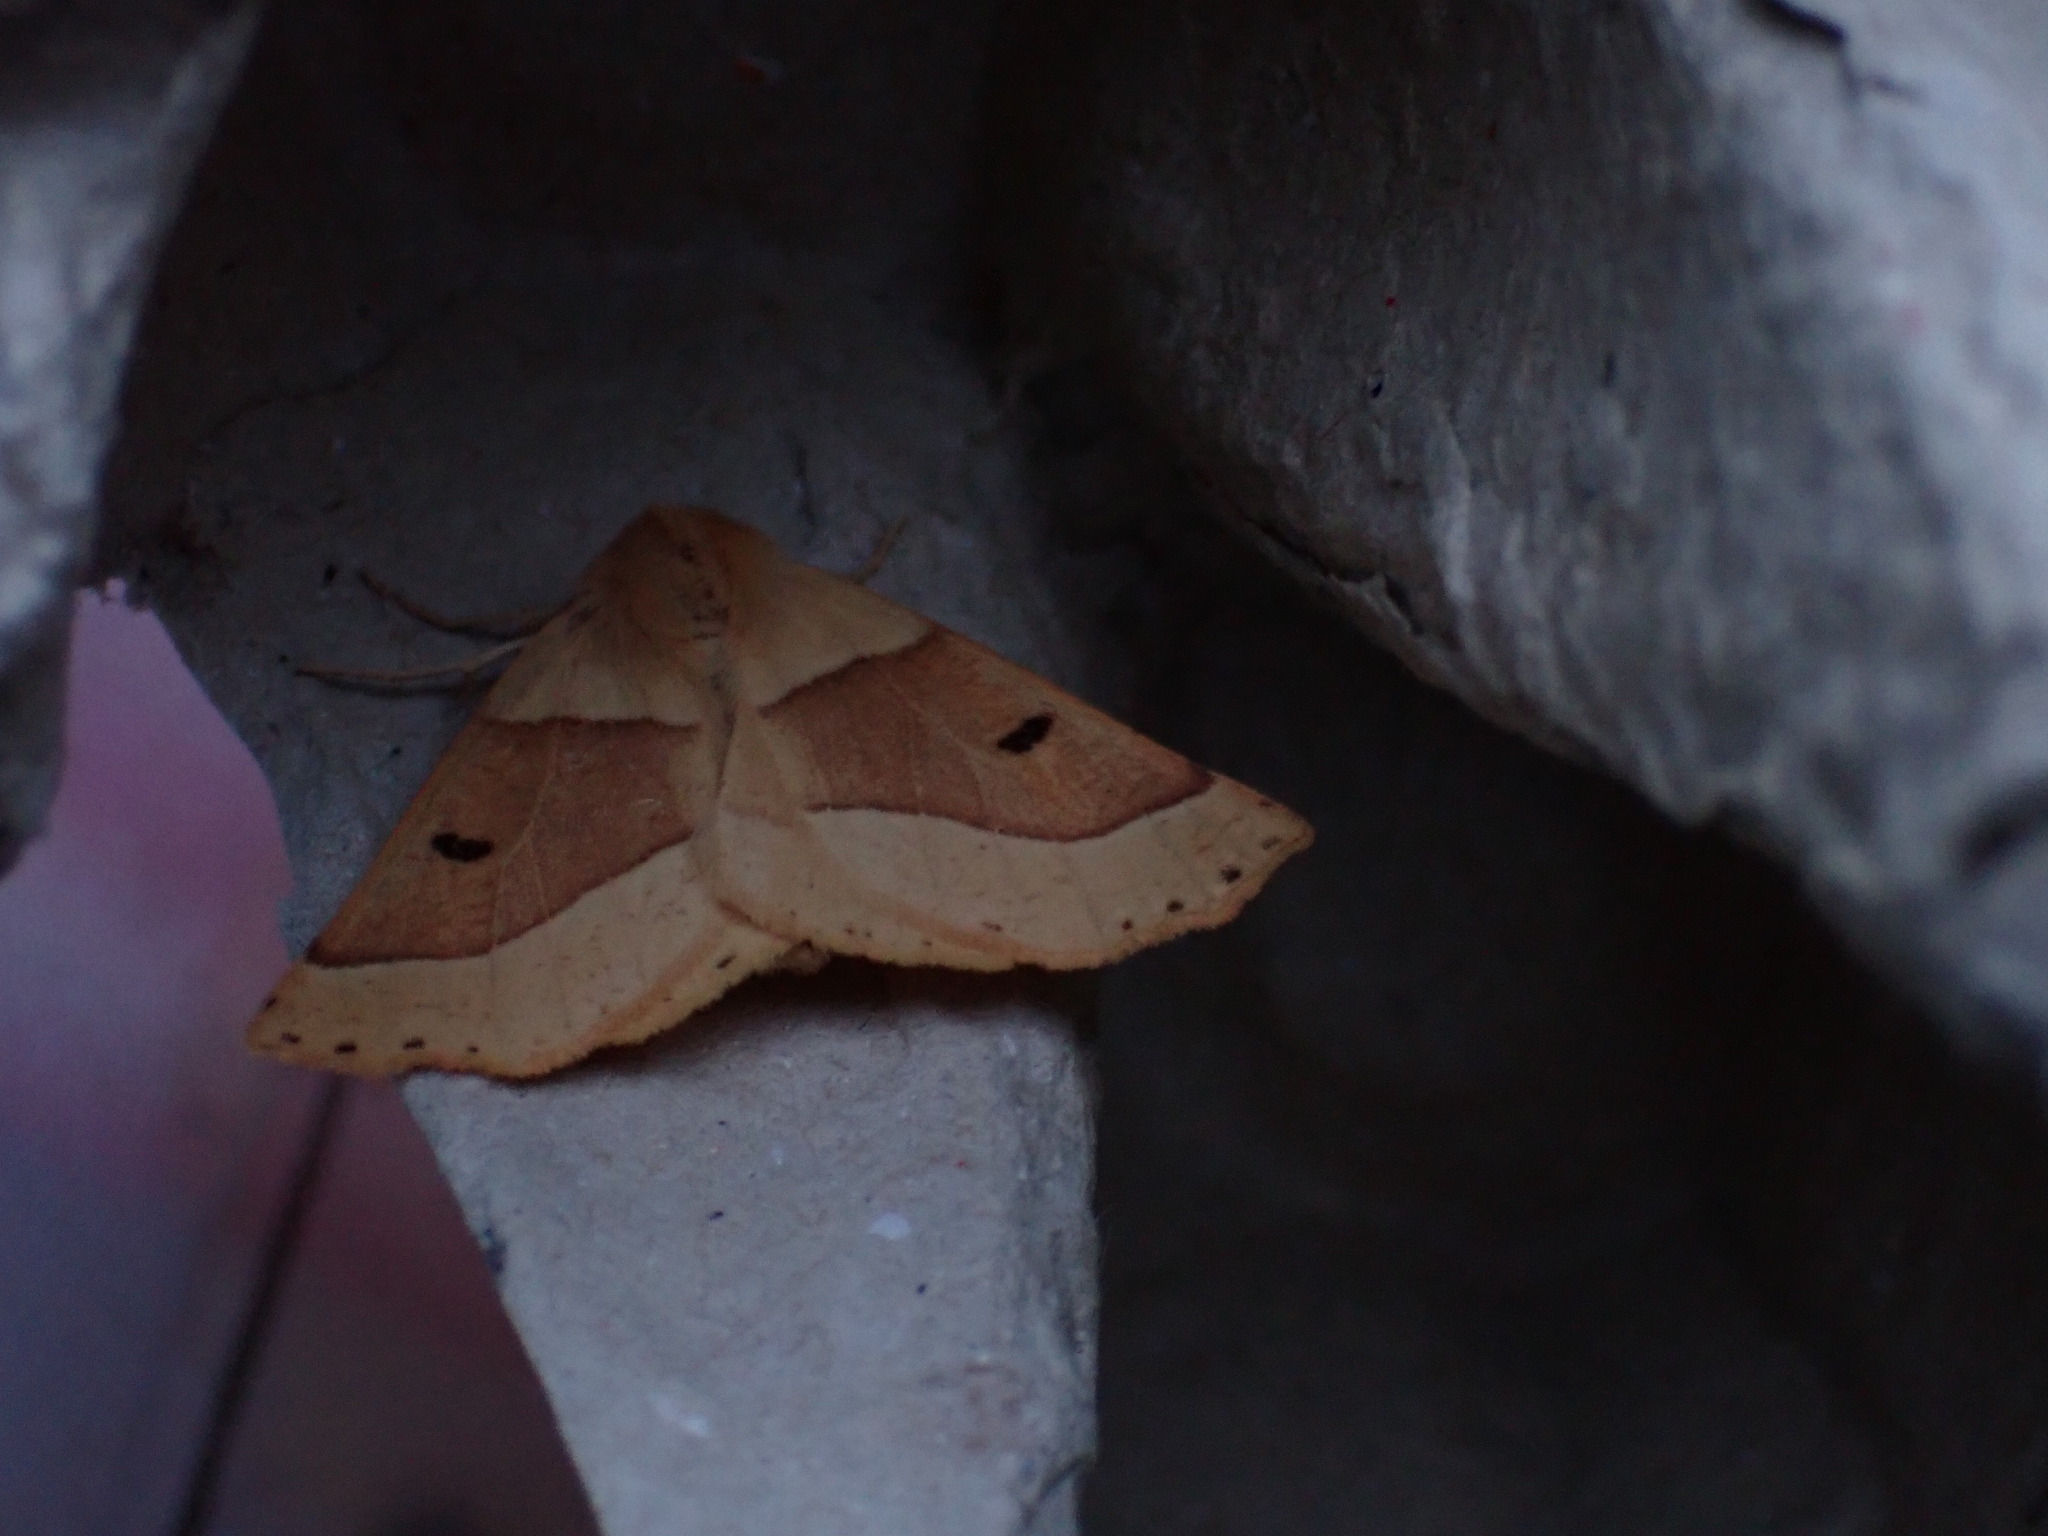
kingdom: Animalia
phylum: Arthropoda
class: Insecta
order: Lepidoptera
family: Geometridae
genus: Crocallis
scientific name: Crocallis elinguaria
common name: Scalloped oak
